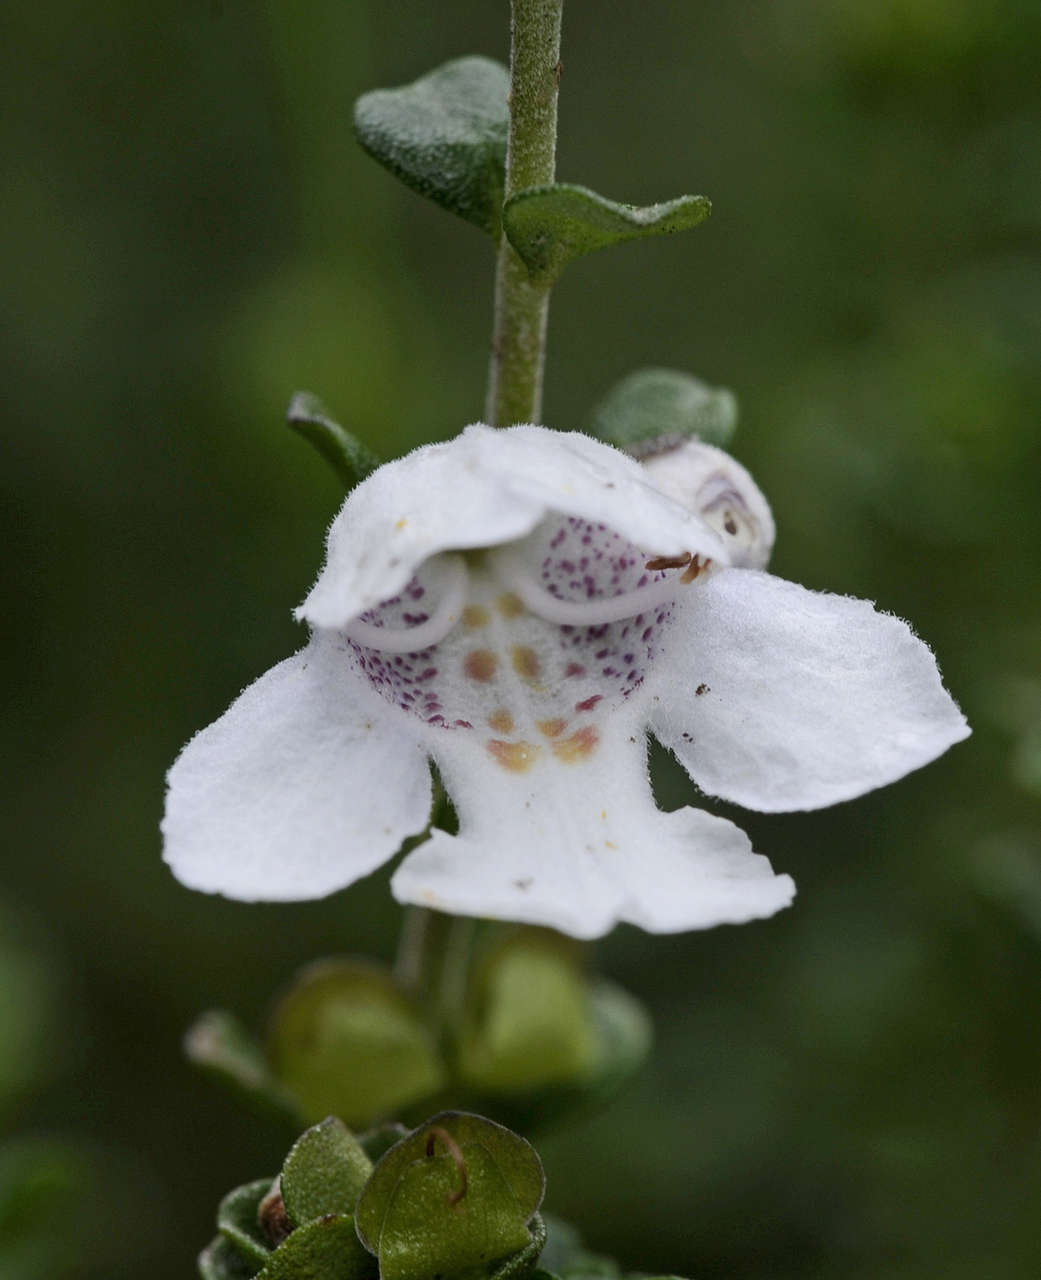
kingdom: Plantae
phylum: Tracheophyta
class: Magnoliopsida
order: Lamiales
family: Lamiaceae
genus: Prostanthera
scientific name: Prostanthera cuneata
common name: Alpine mintbush
